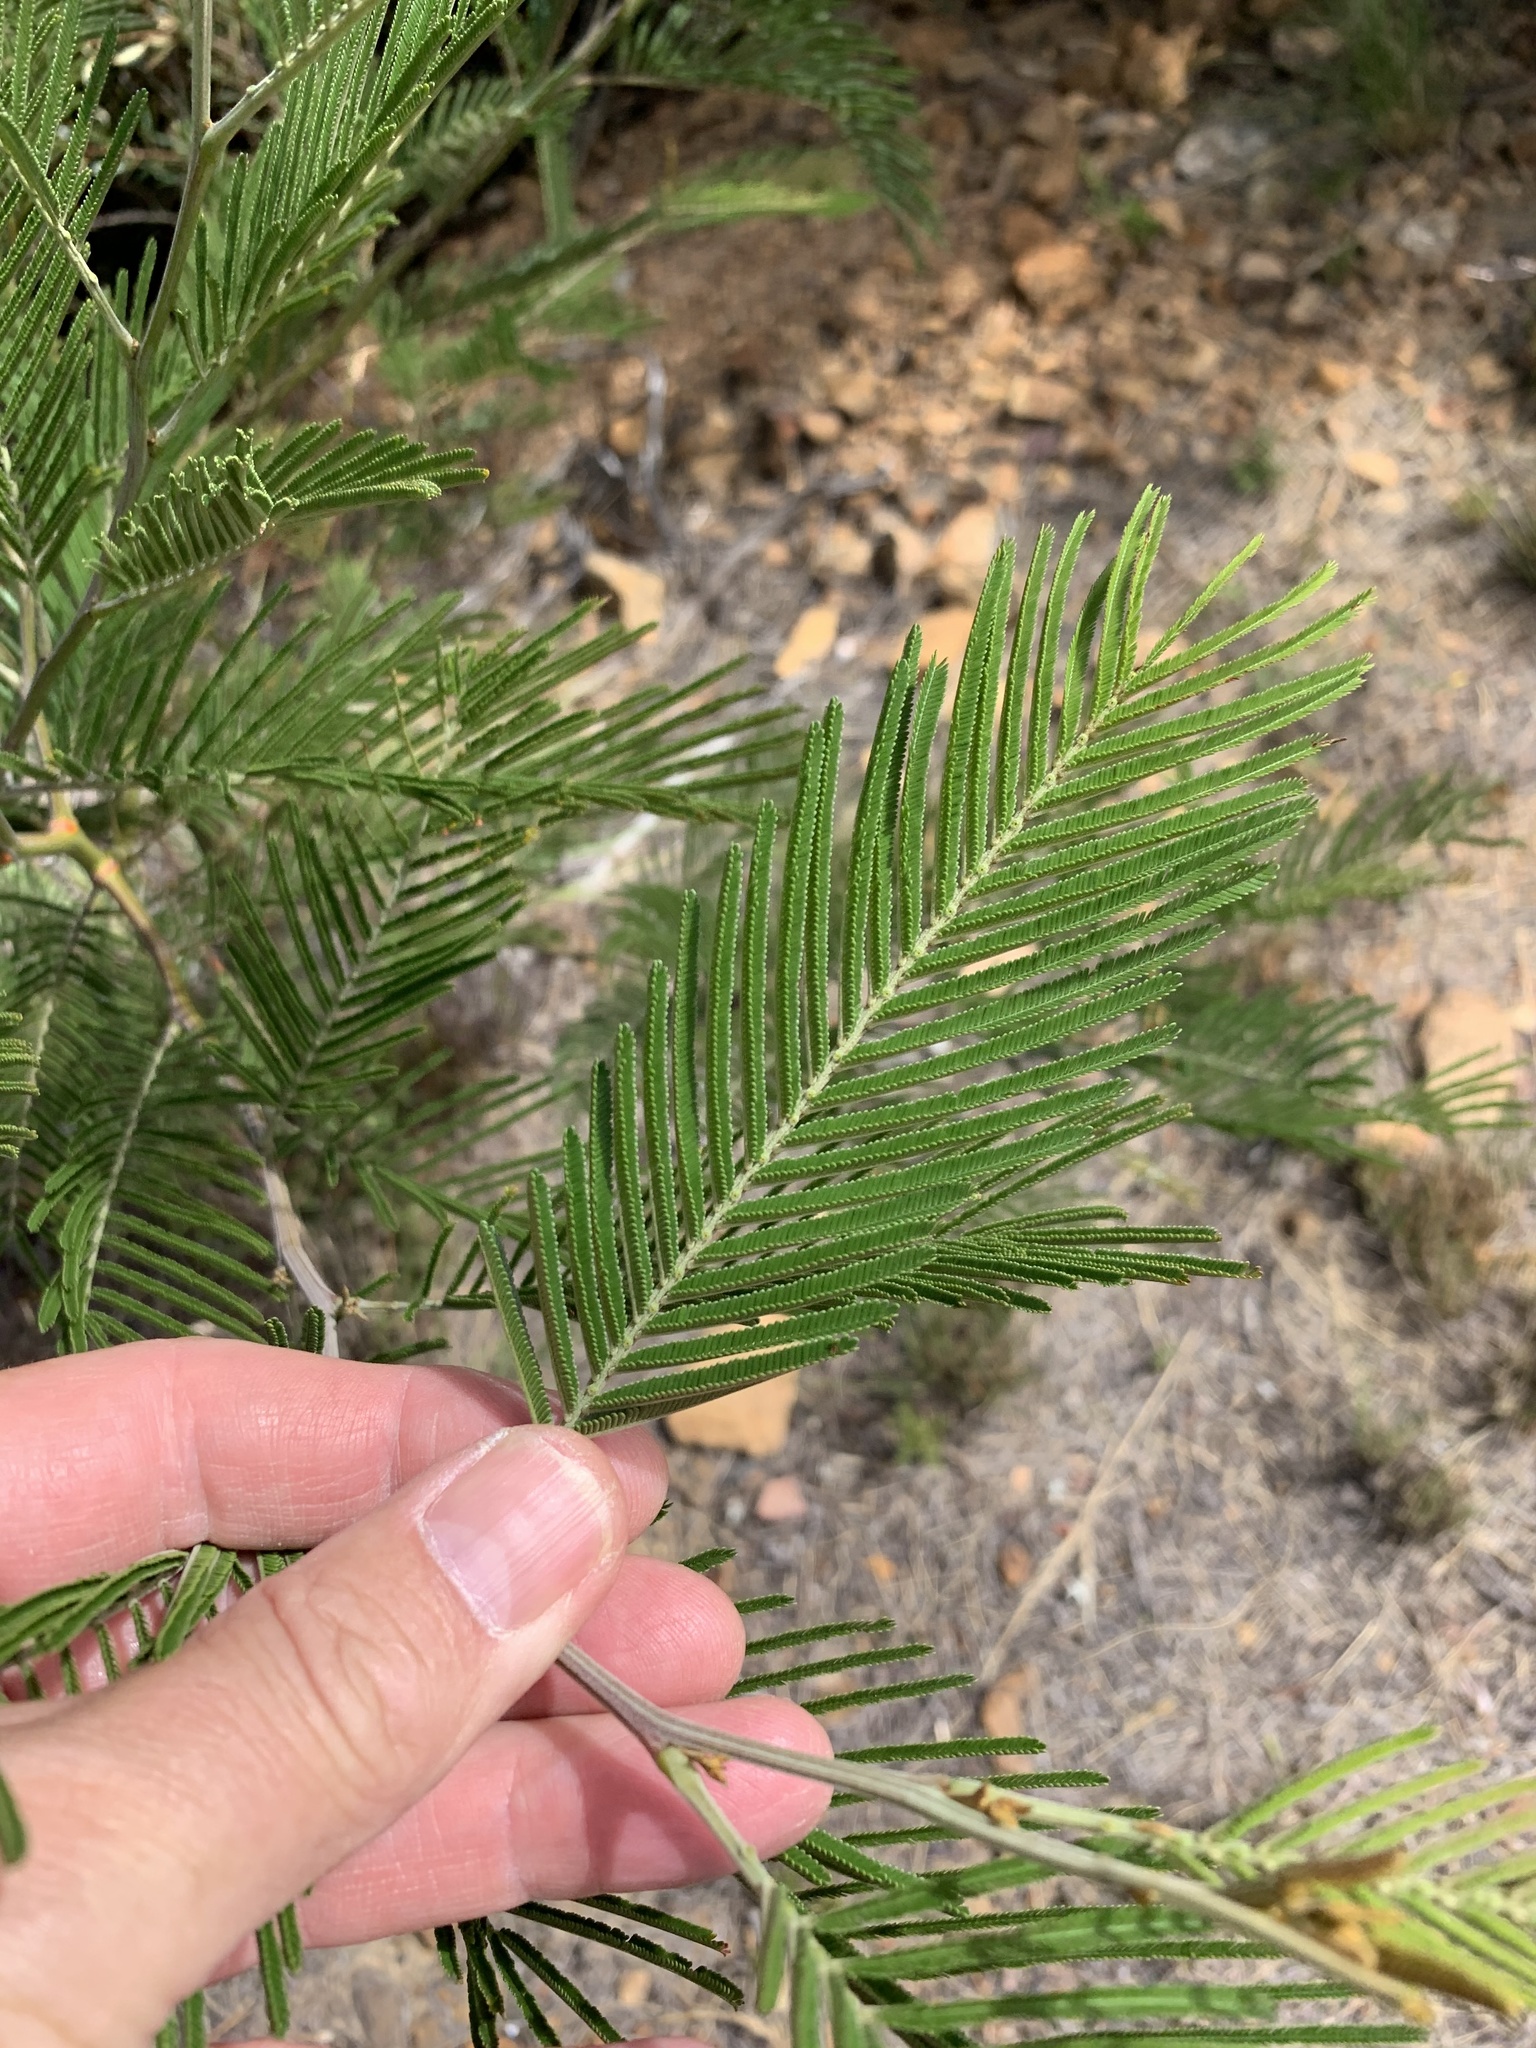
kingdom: Plantae
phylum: Tracheophyta
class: Magnoliopsida
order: Fabales
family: Fabaceae
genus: Acacia
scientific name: Acacia mearnsii
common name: Black wattle
